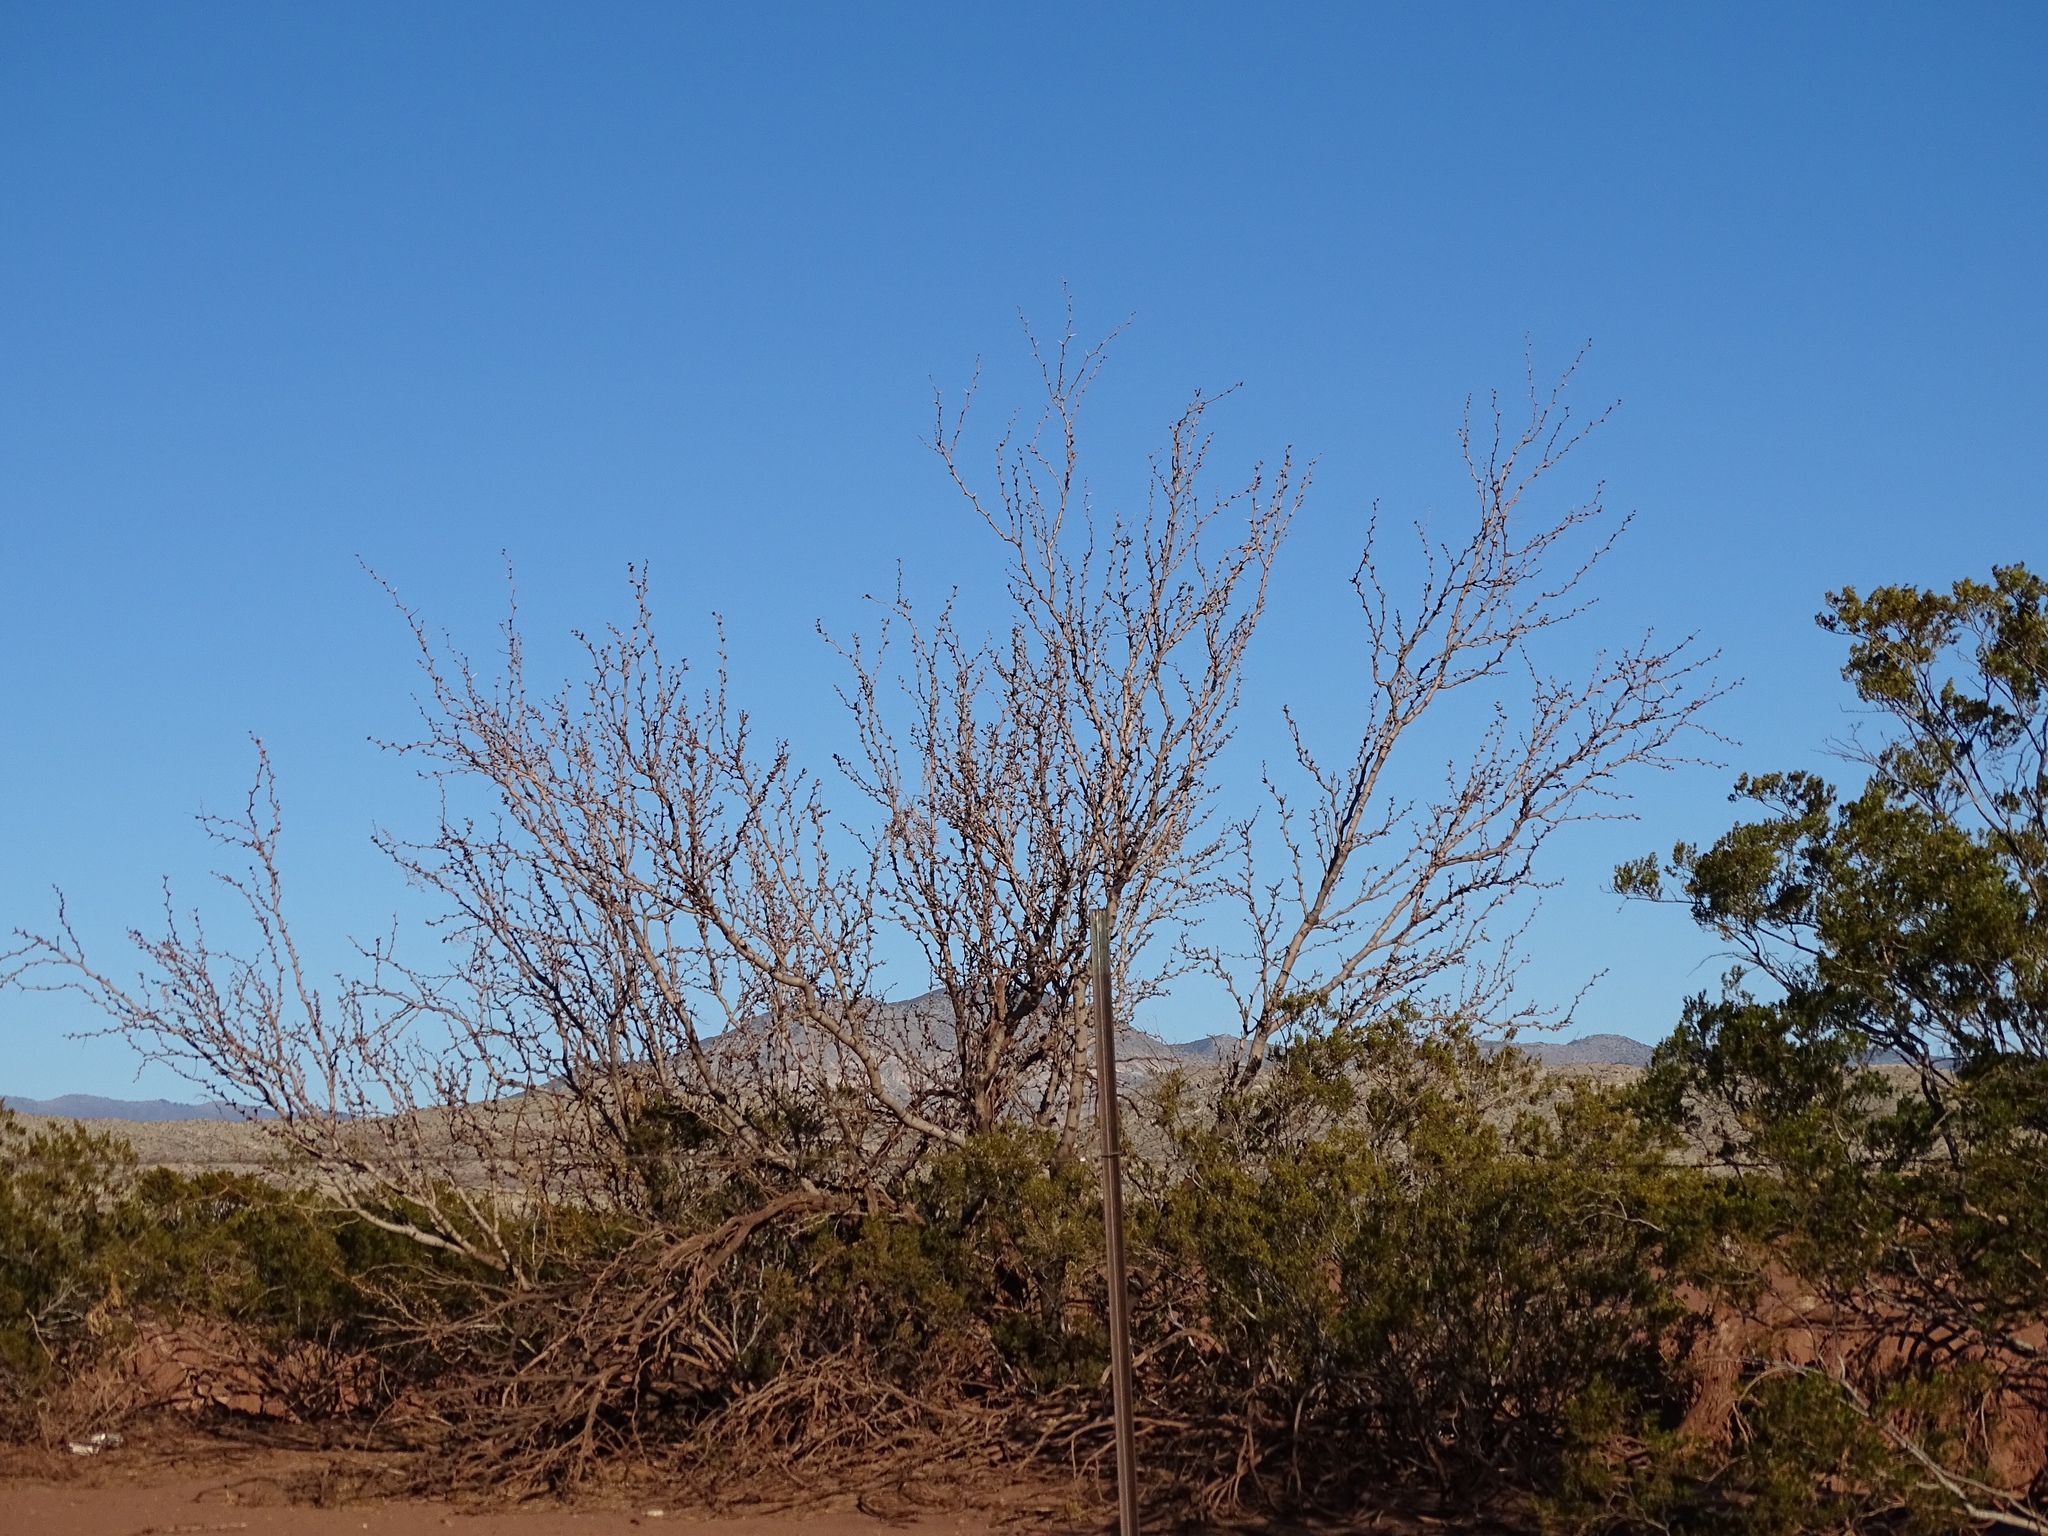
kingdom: Plantae
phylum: Tracheophyta
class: Magnoliopsida
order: Fabales
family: Fabaceae
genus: Prosopis
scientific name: Prosopis glandulosa
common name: Honey mesquite
